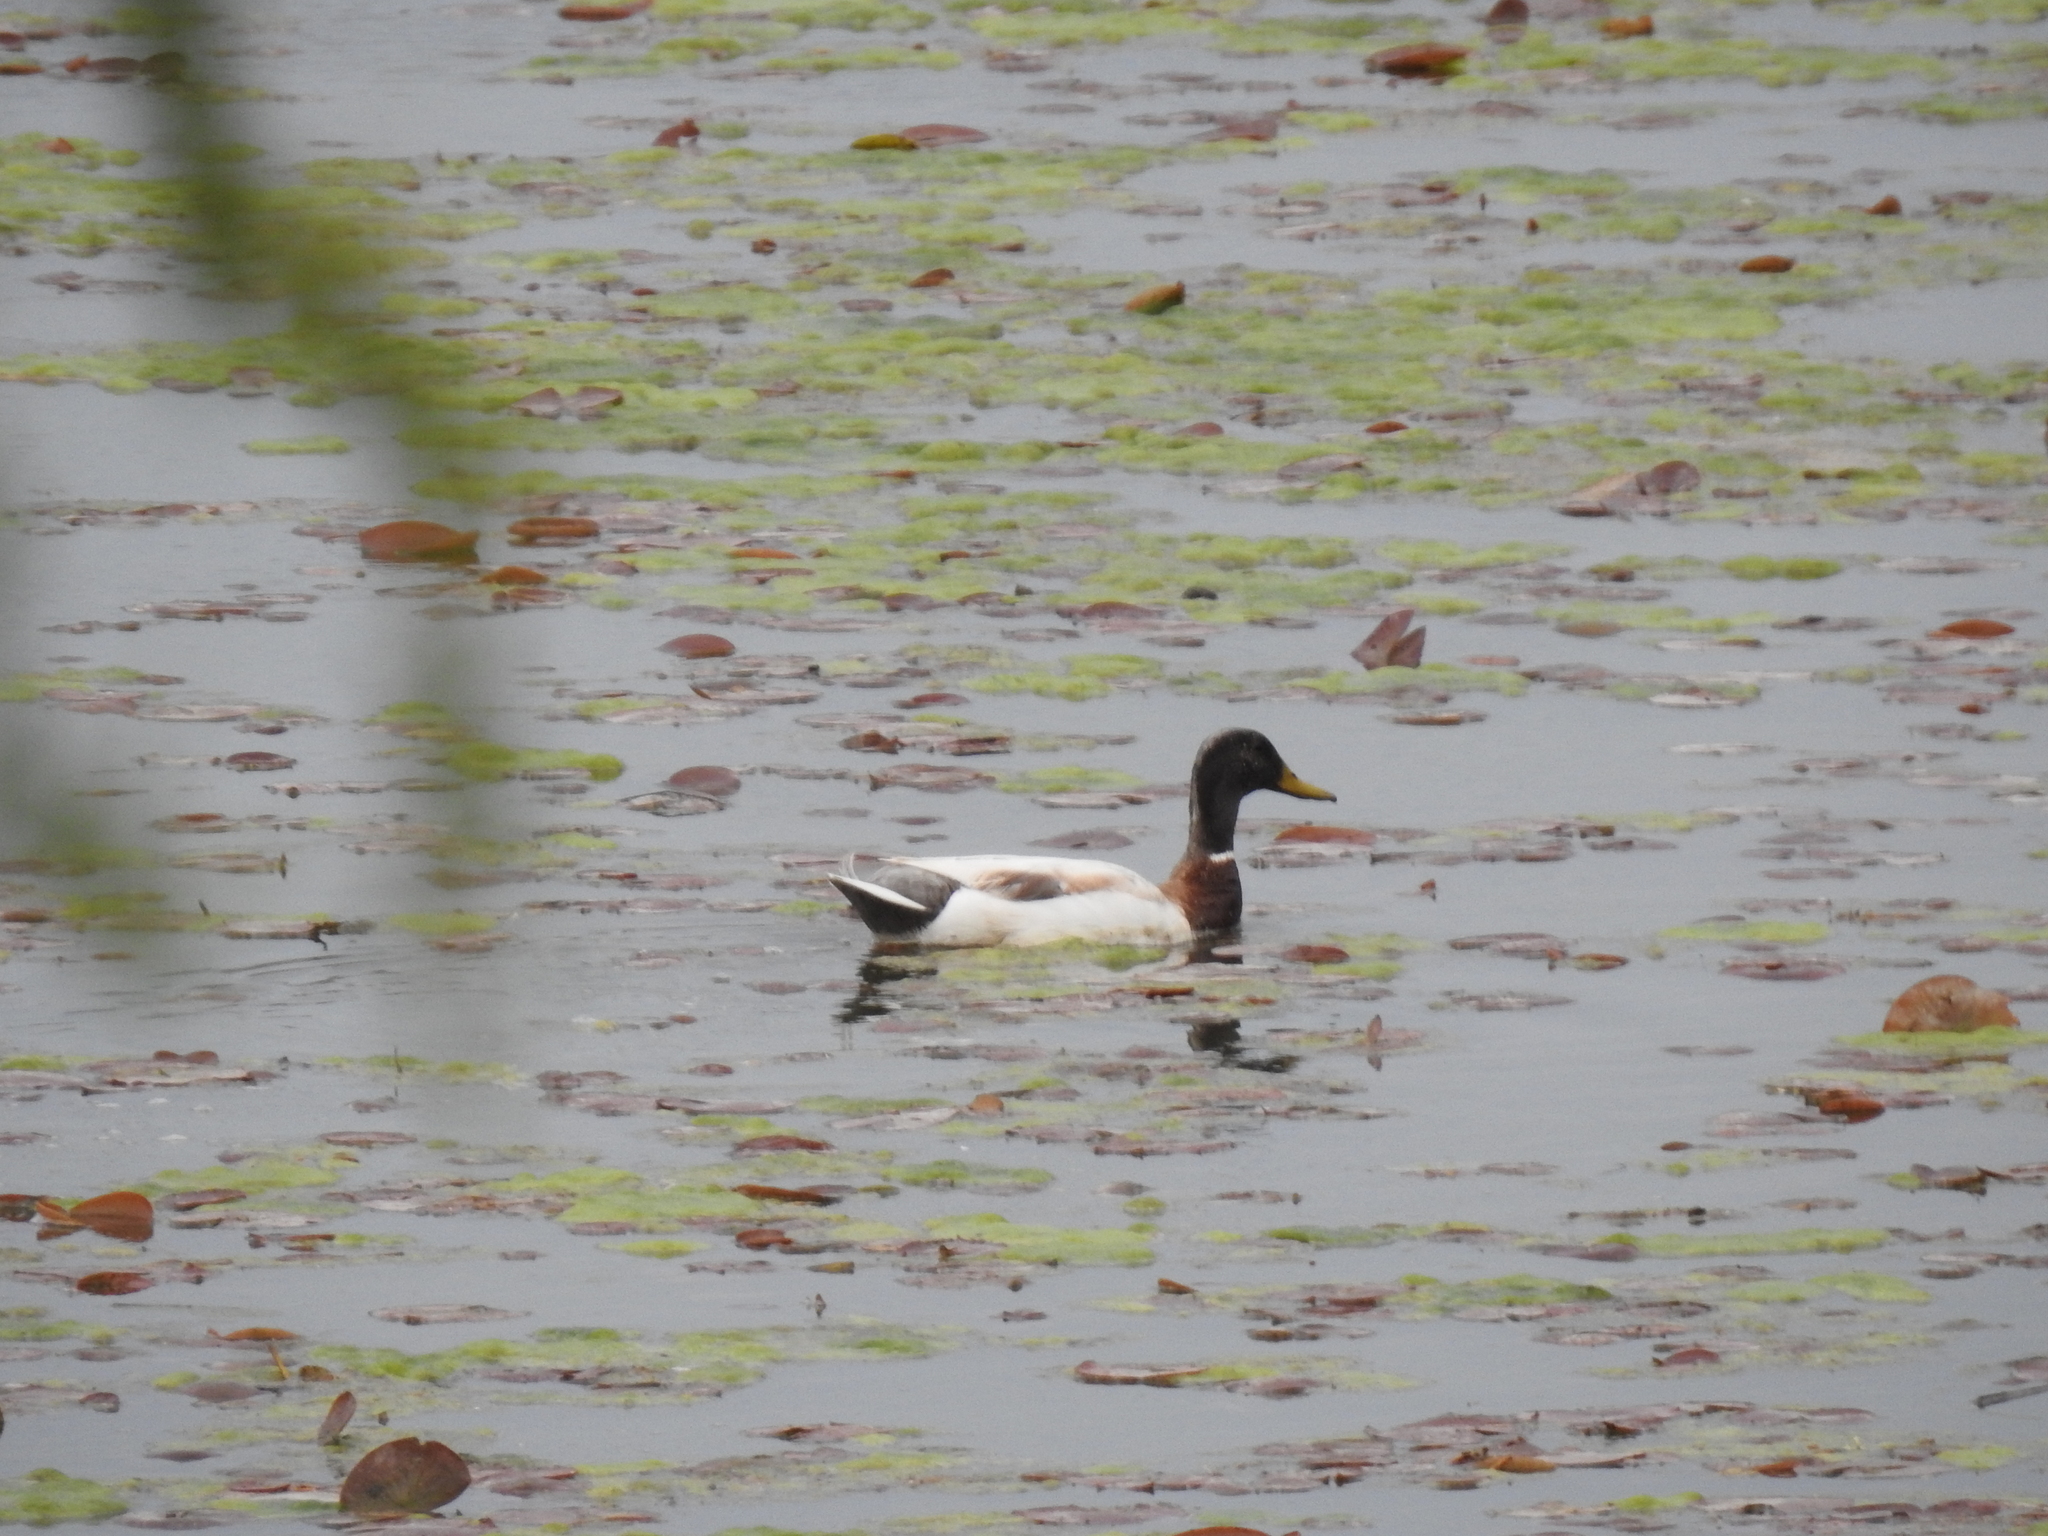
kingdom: Animalia
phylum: Chordata
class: Aves
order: Anseriformes
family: Anatidae
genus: Anas
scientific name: Anas platyrhynchos
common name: Mallard
